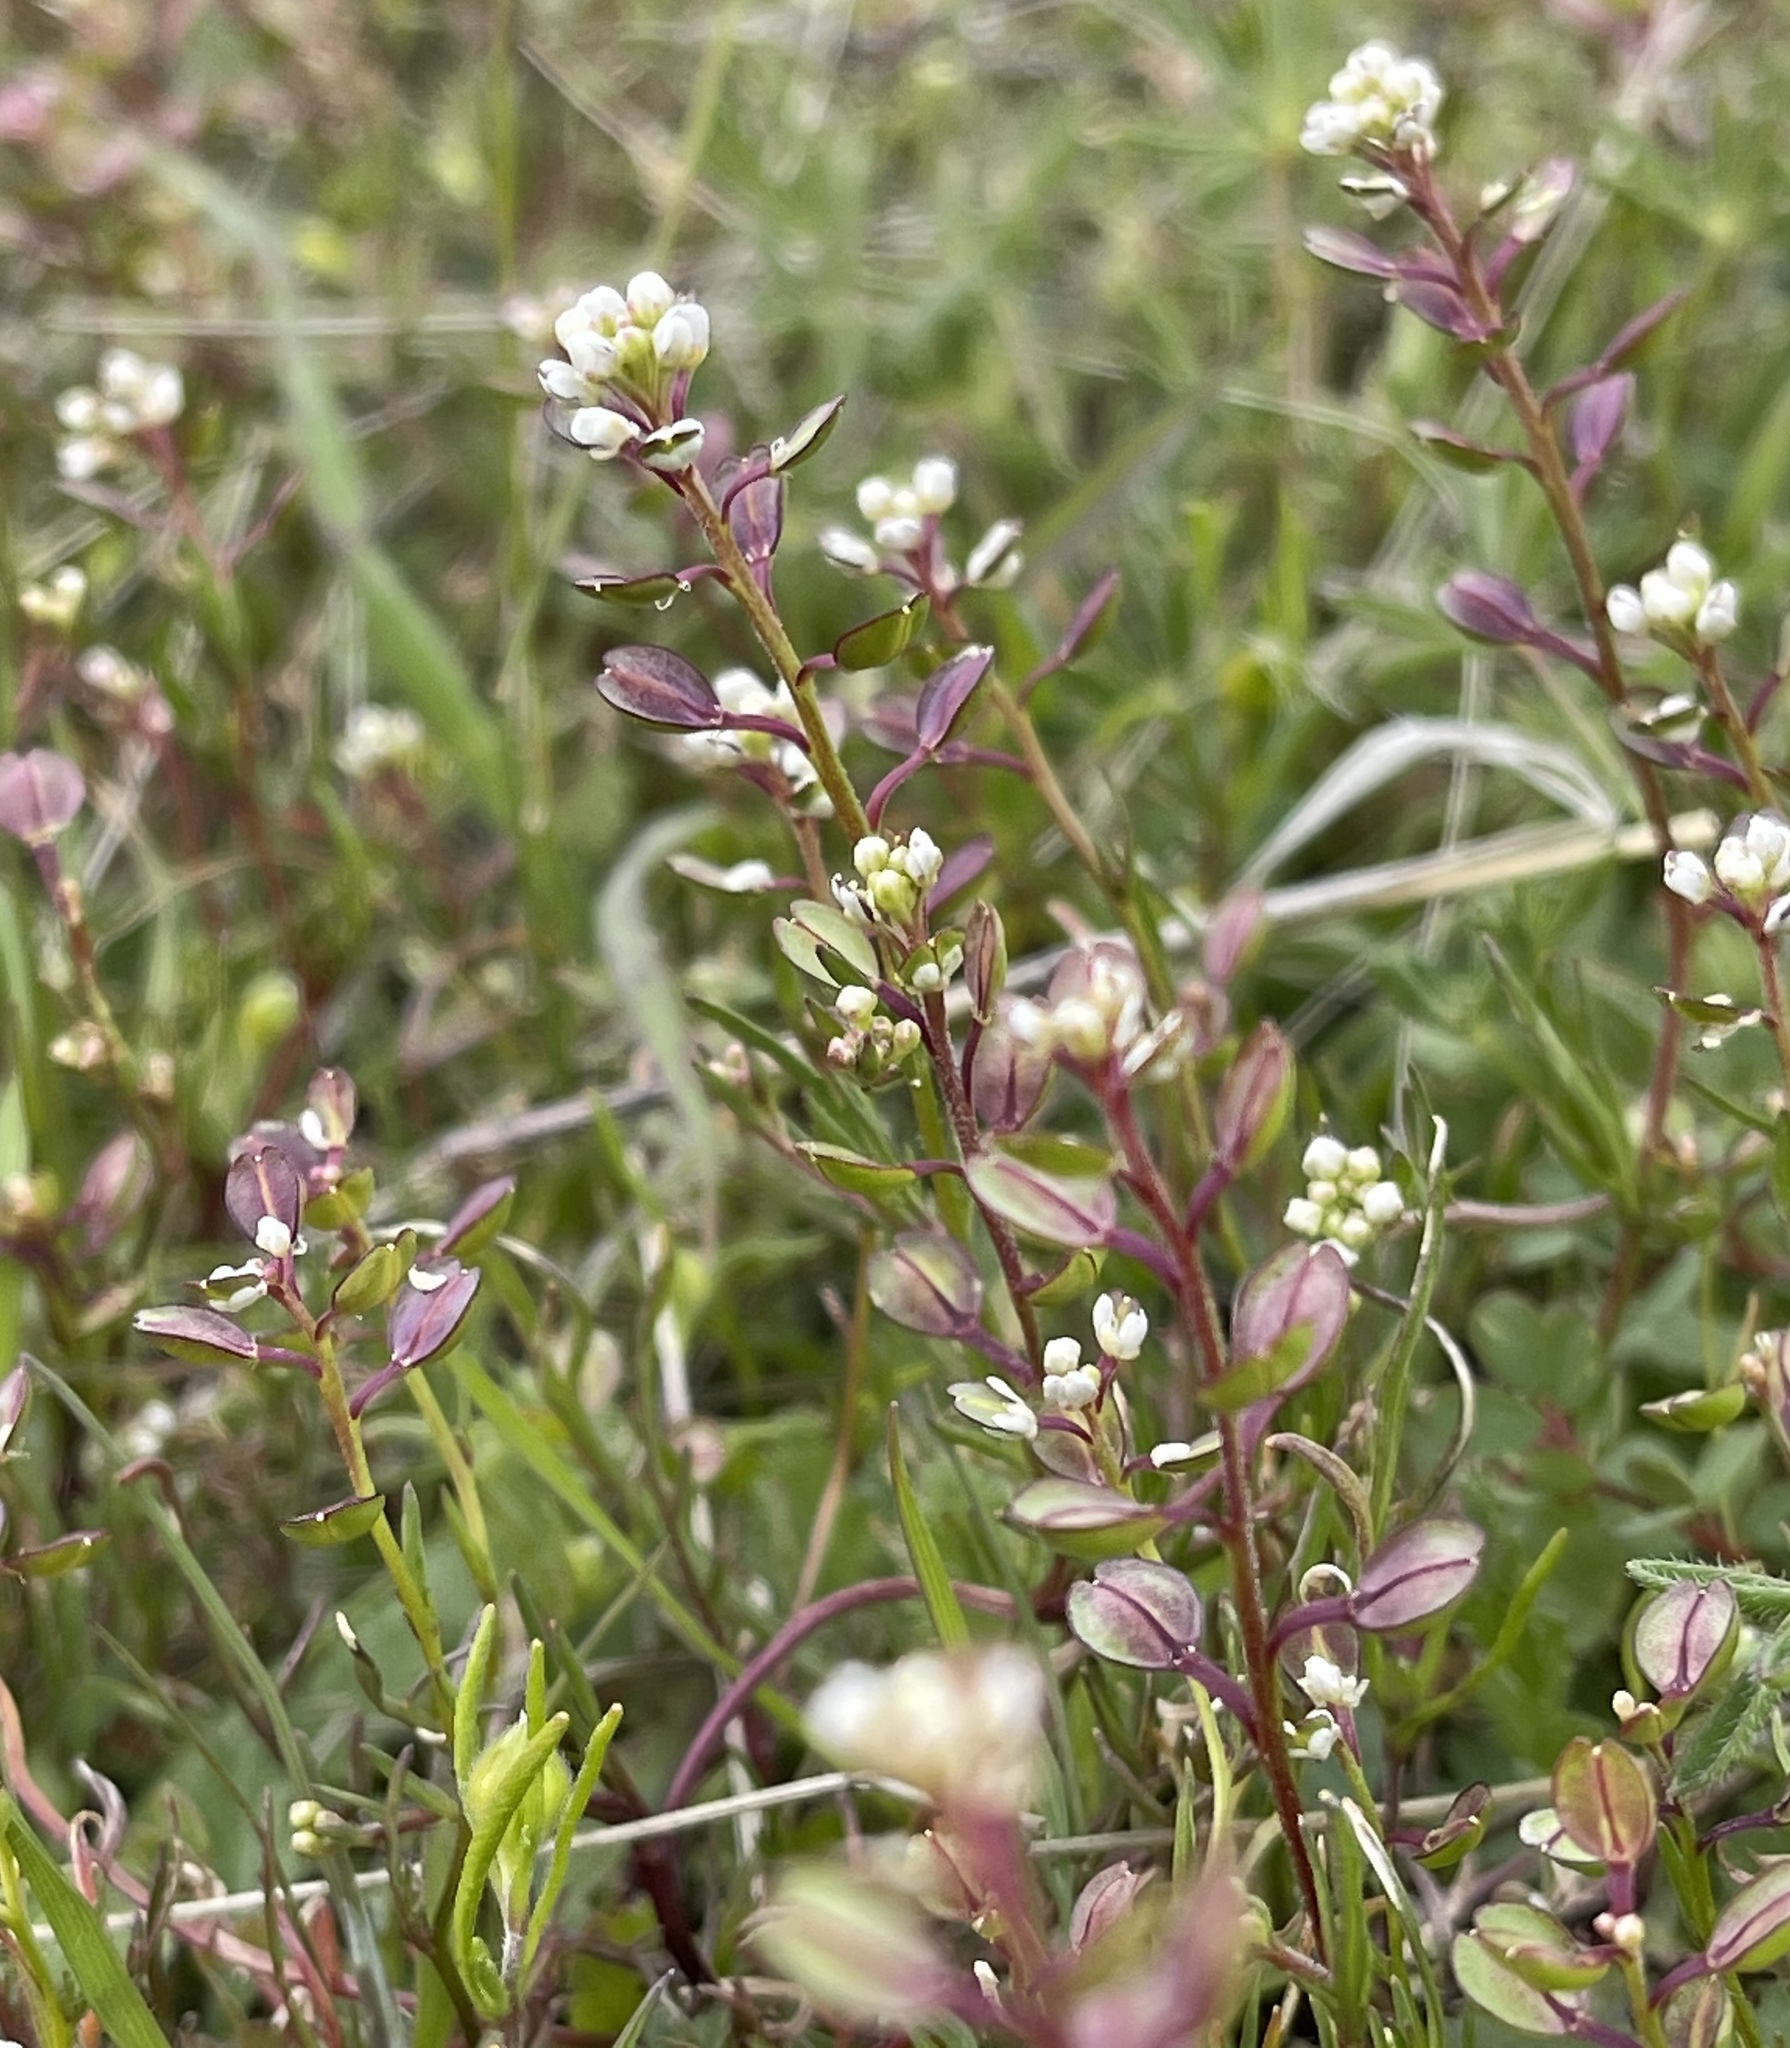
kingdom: Plantae
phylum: Tracheophyta
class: Magnoliopsida
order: Brassicales
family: Brassicaceae
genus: Lepidium
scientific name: Lepidium nitidum
